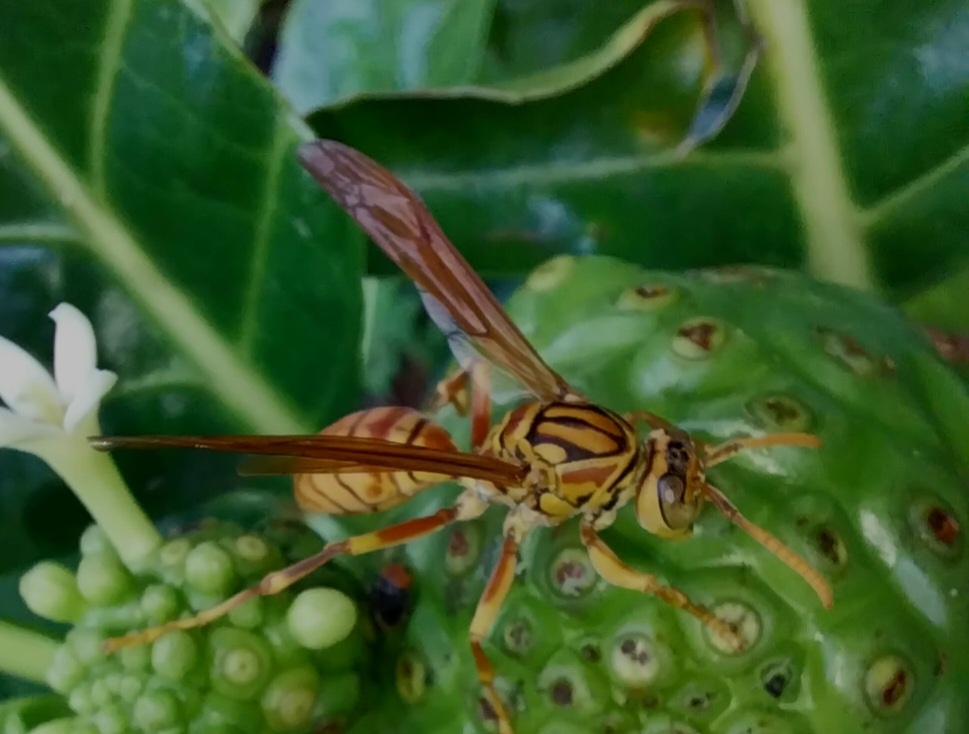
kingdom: Animalia
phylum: Arthropoda
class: Insecta
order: Hymenoptera
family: Eumenidae
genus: Polistes
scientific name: Polistes olivaceus
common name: Paper wasp
